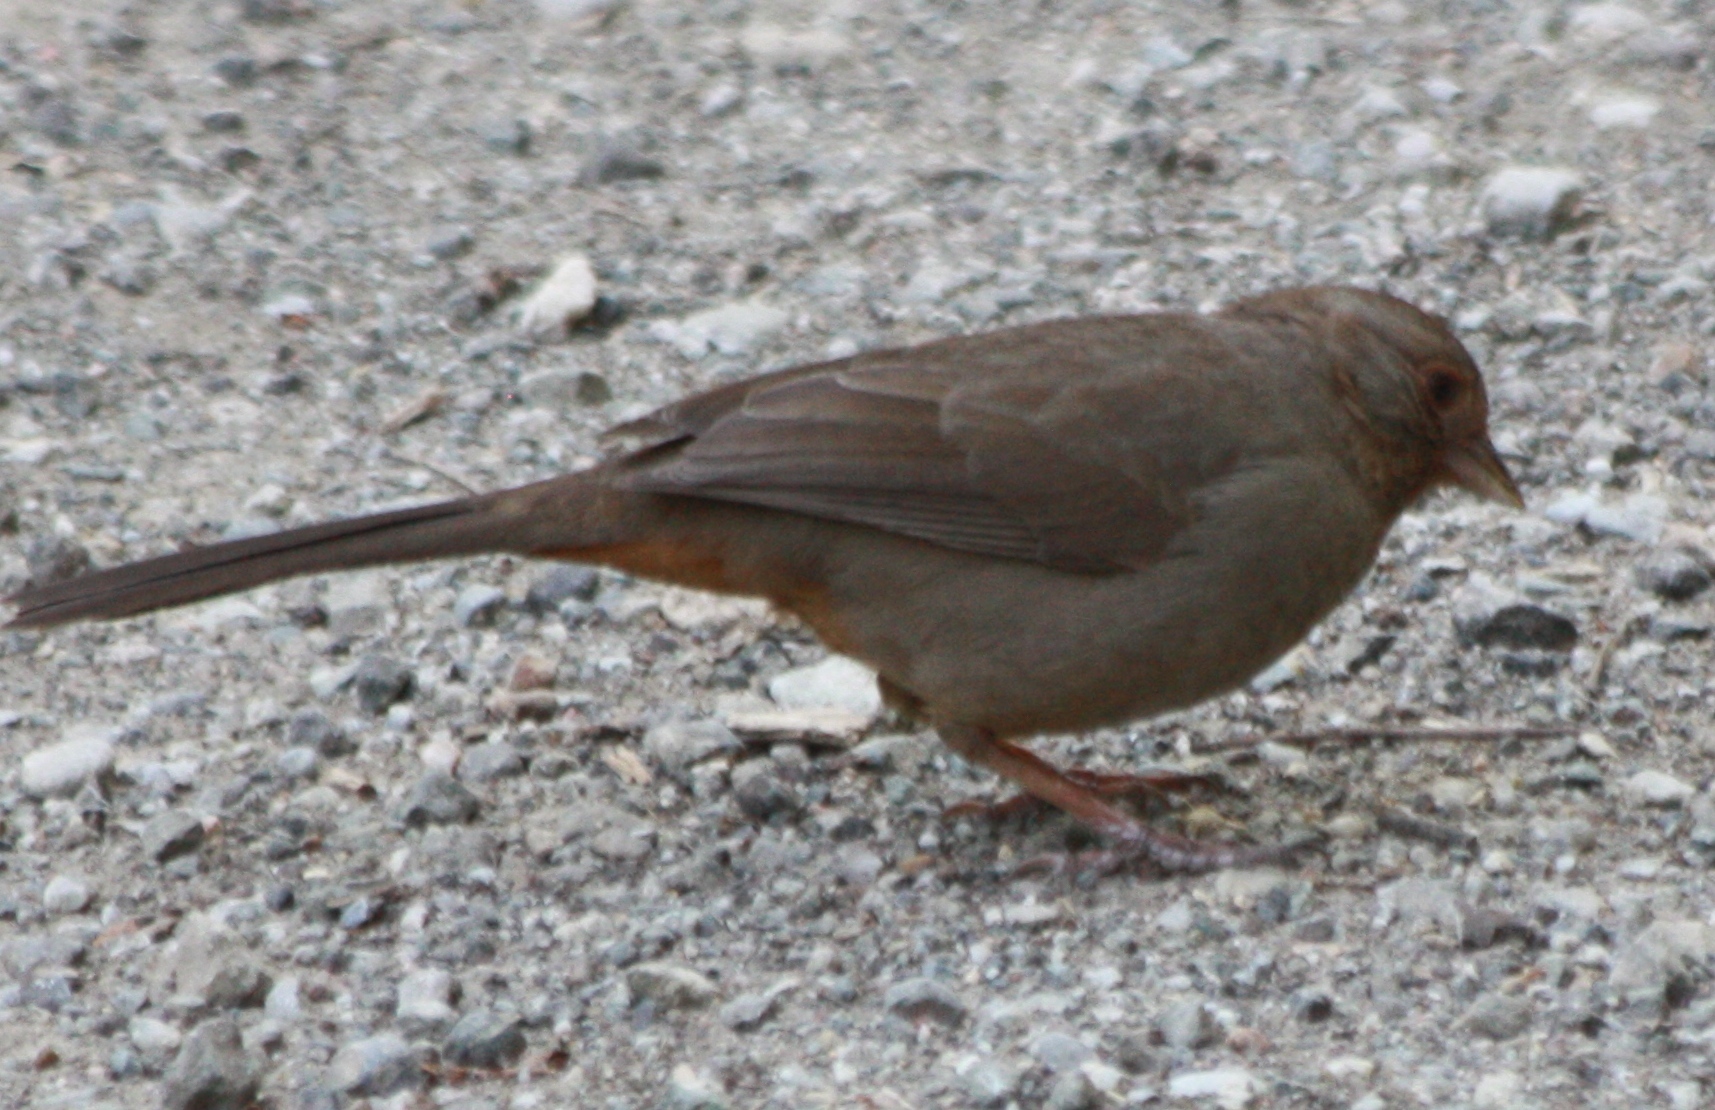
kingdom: Animalia
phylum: Chordata
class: Aves
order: Passeriformes
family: Passerellidae
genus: Melozone
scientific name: Melozone crissalis
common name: California towhee
